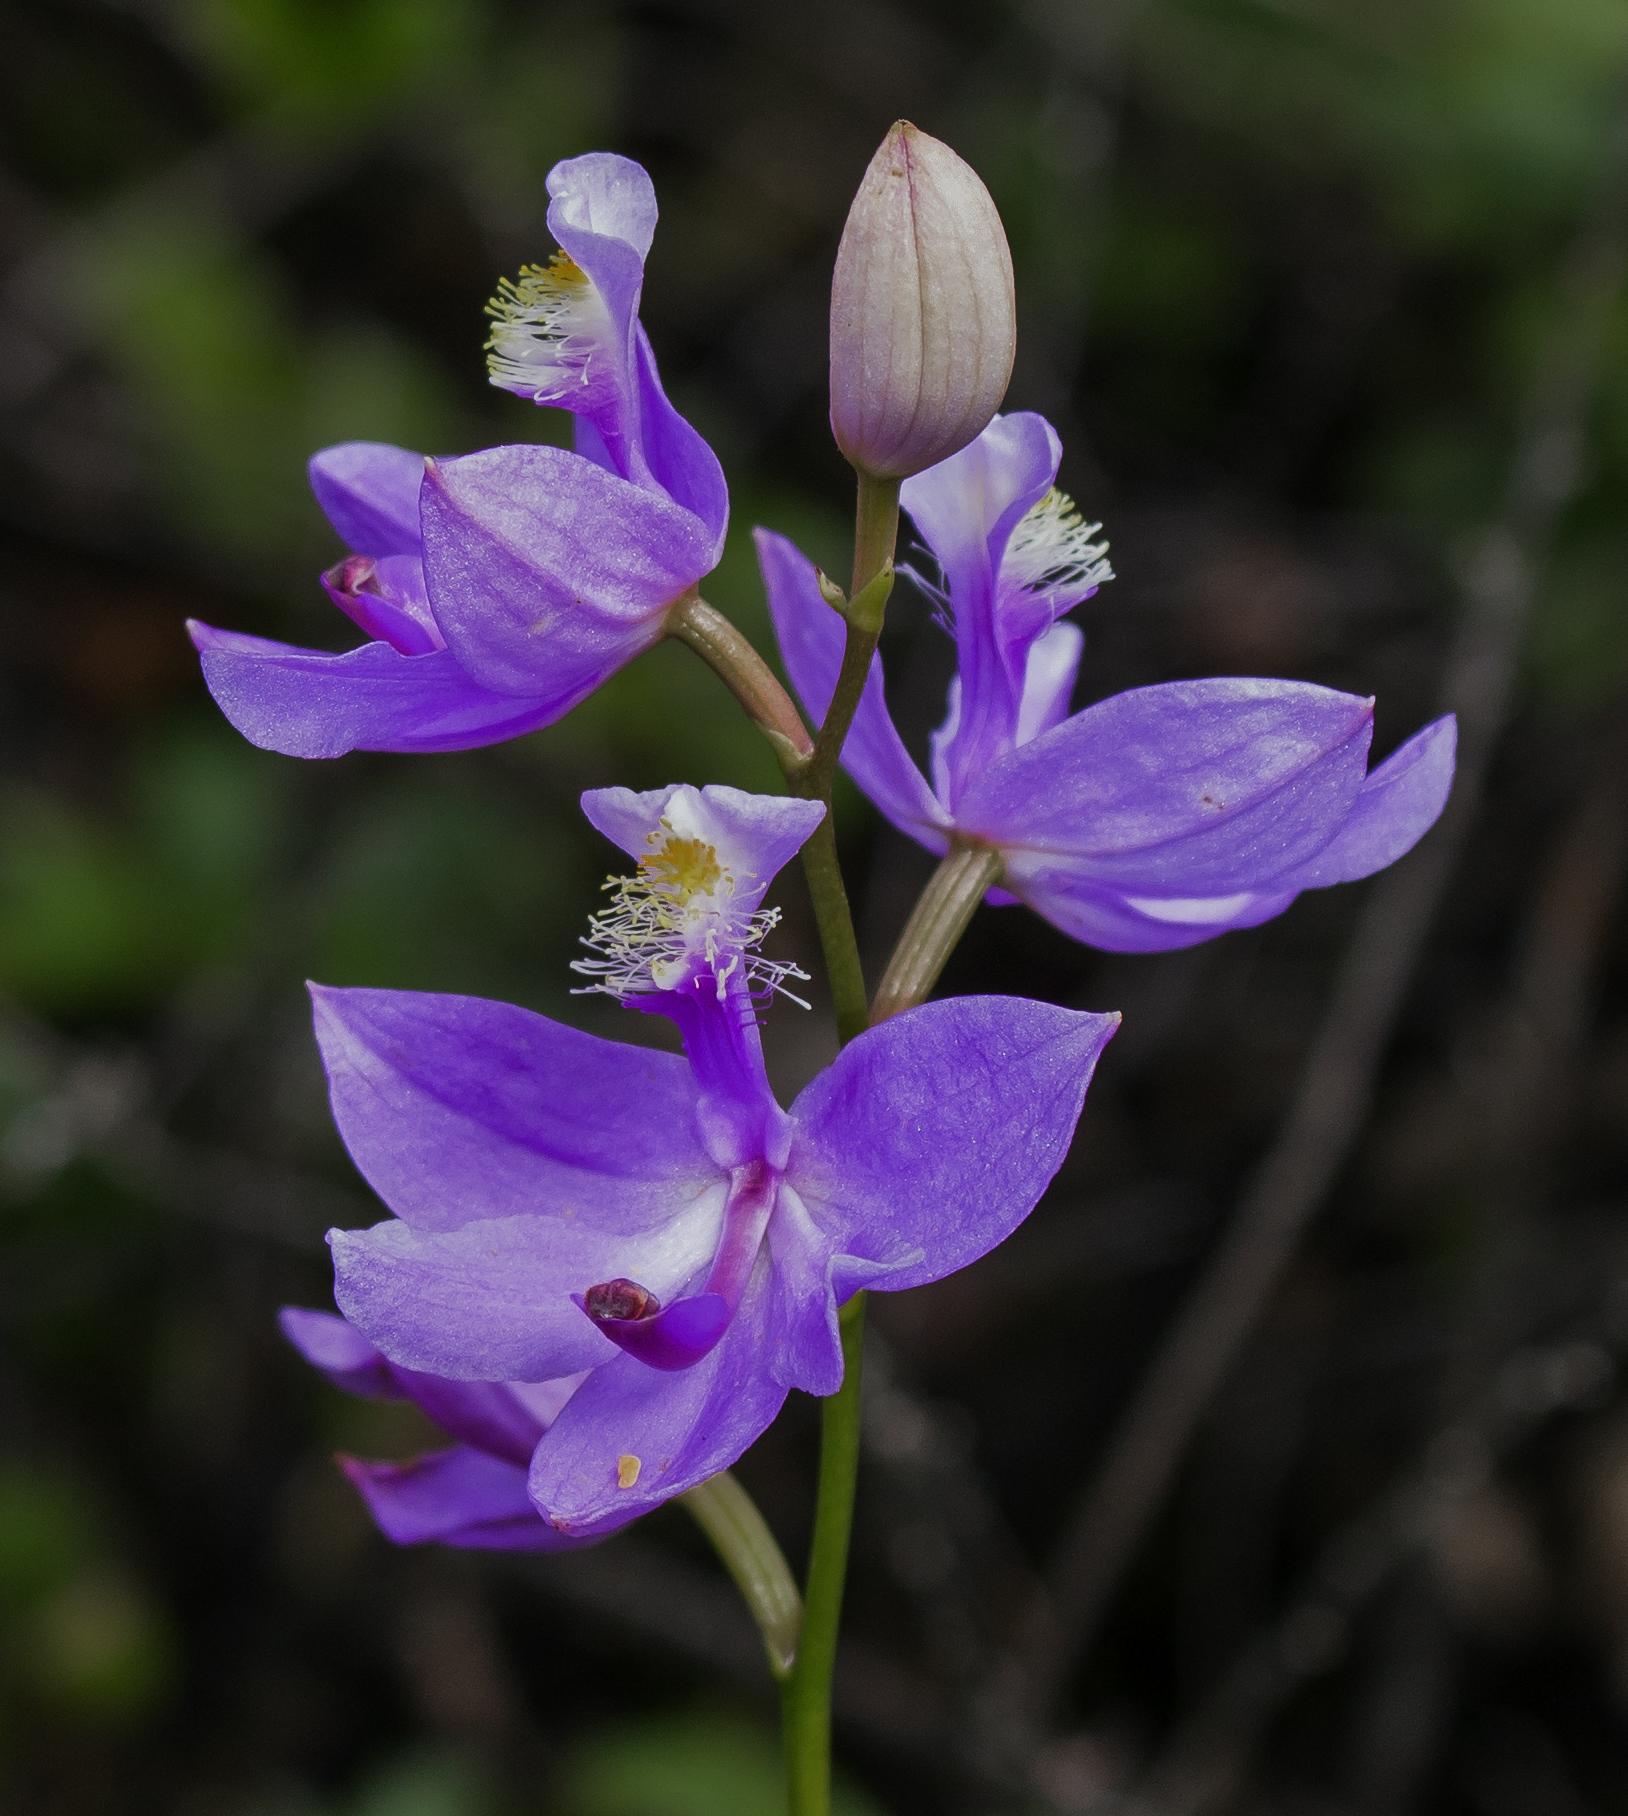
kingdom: Plantae
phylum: Tracheophyta
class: Liliopsida
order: Asparagales
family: Orchidaceae
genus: Calopogon
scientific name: Calopogon tuberosus
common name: Grass-pink
